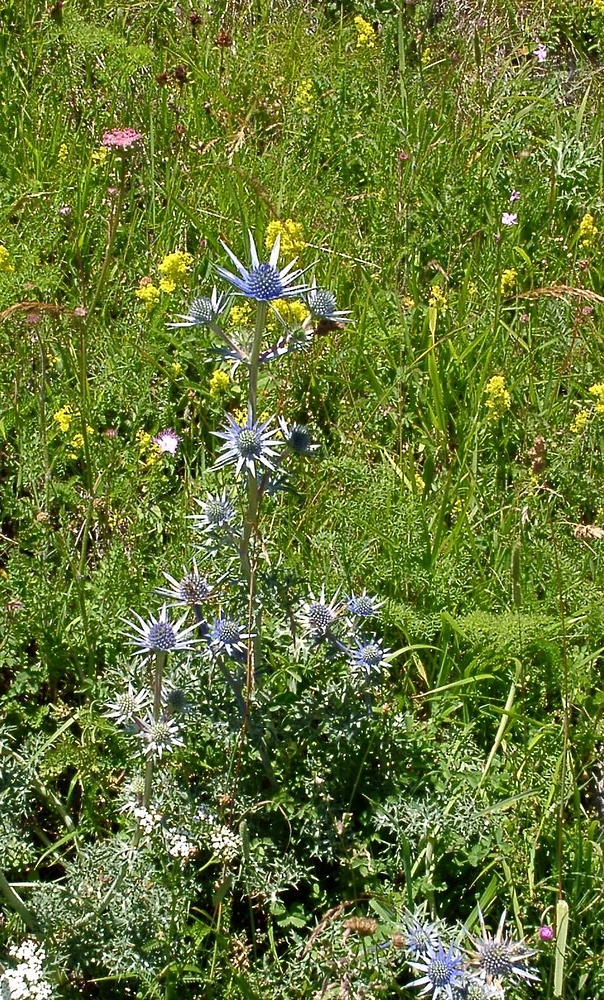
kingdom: Plantae
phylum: Tracheophyta
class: Magnoliopsida
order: Apiales
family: Apiaceae
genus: Eryngium
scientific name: Eryngium bourgatii
